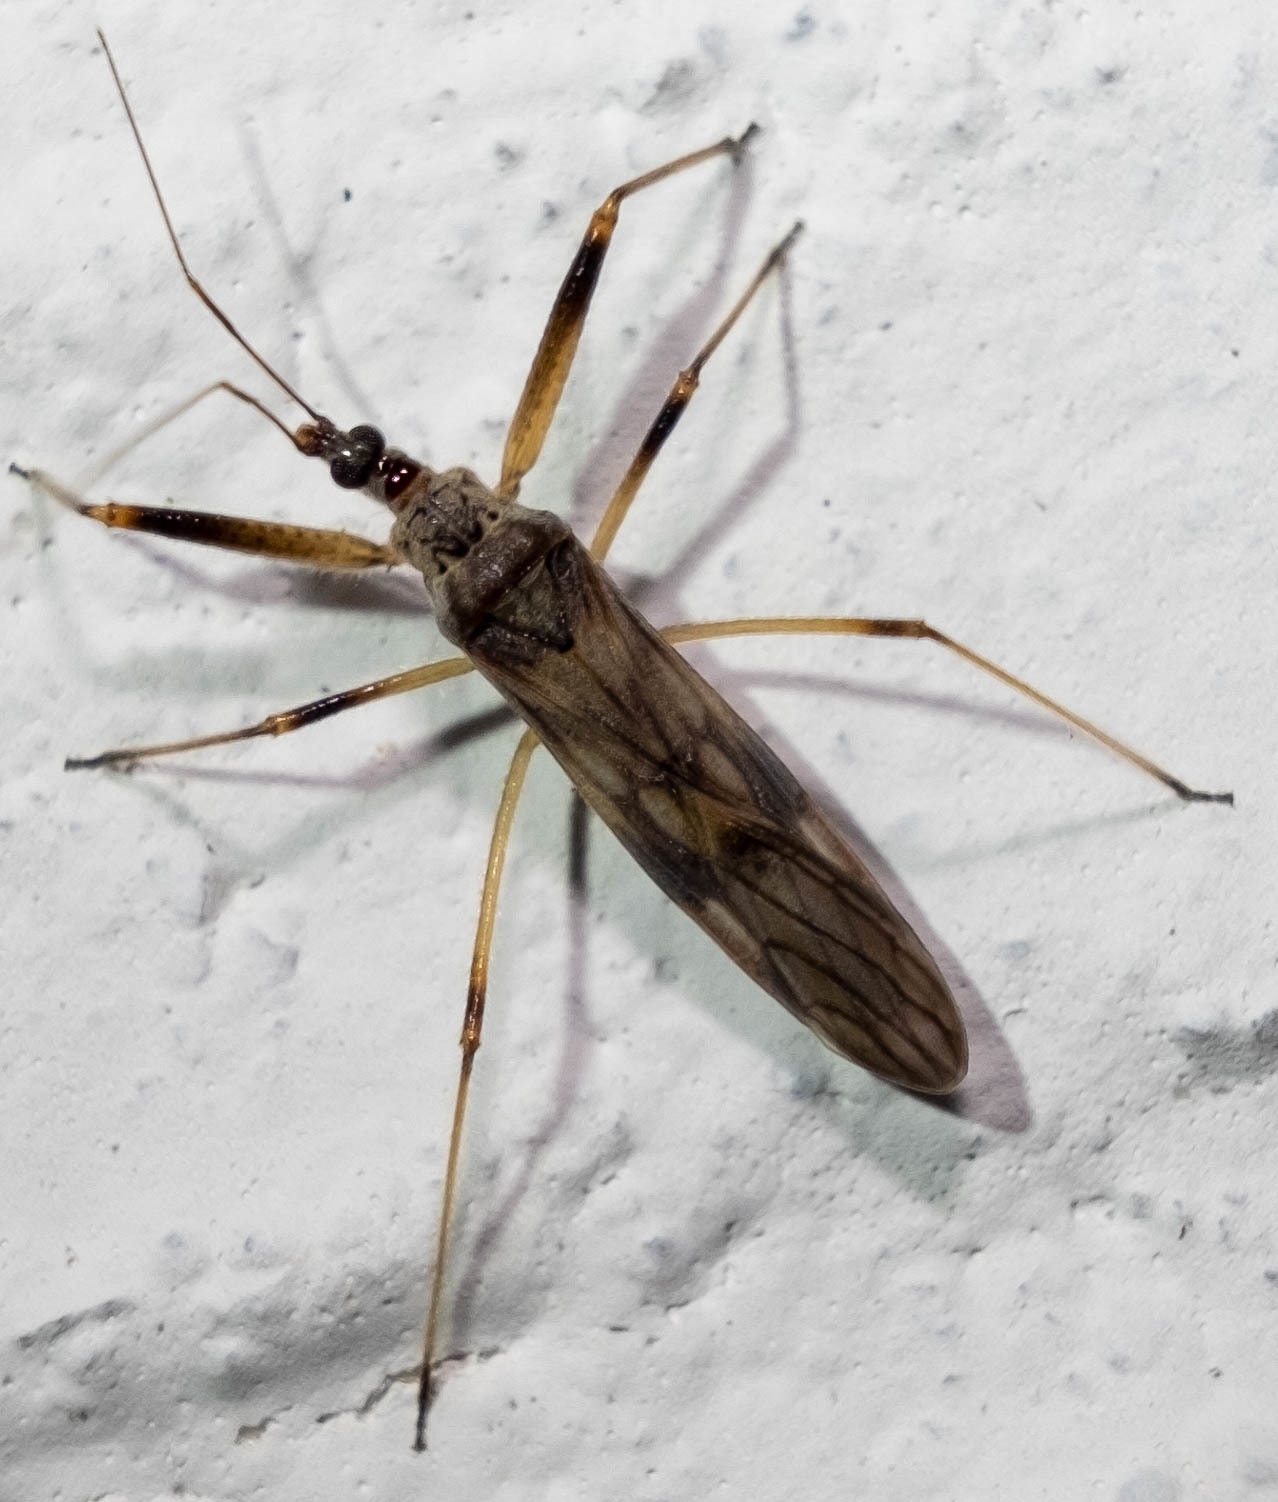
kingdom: Animalia
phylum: Arthropoda
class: Insecta
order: Hemiptera
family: Nabidae
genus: Metatropiphorus
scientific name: Metatropiphorus belfragii
